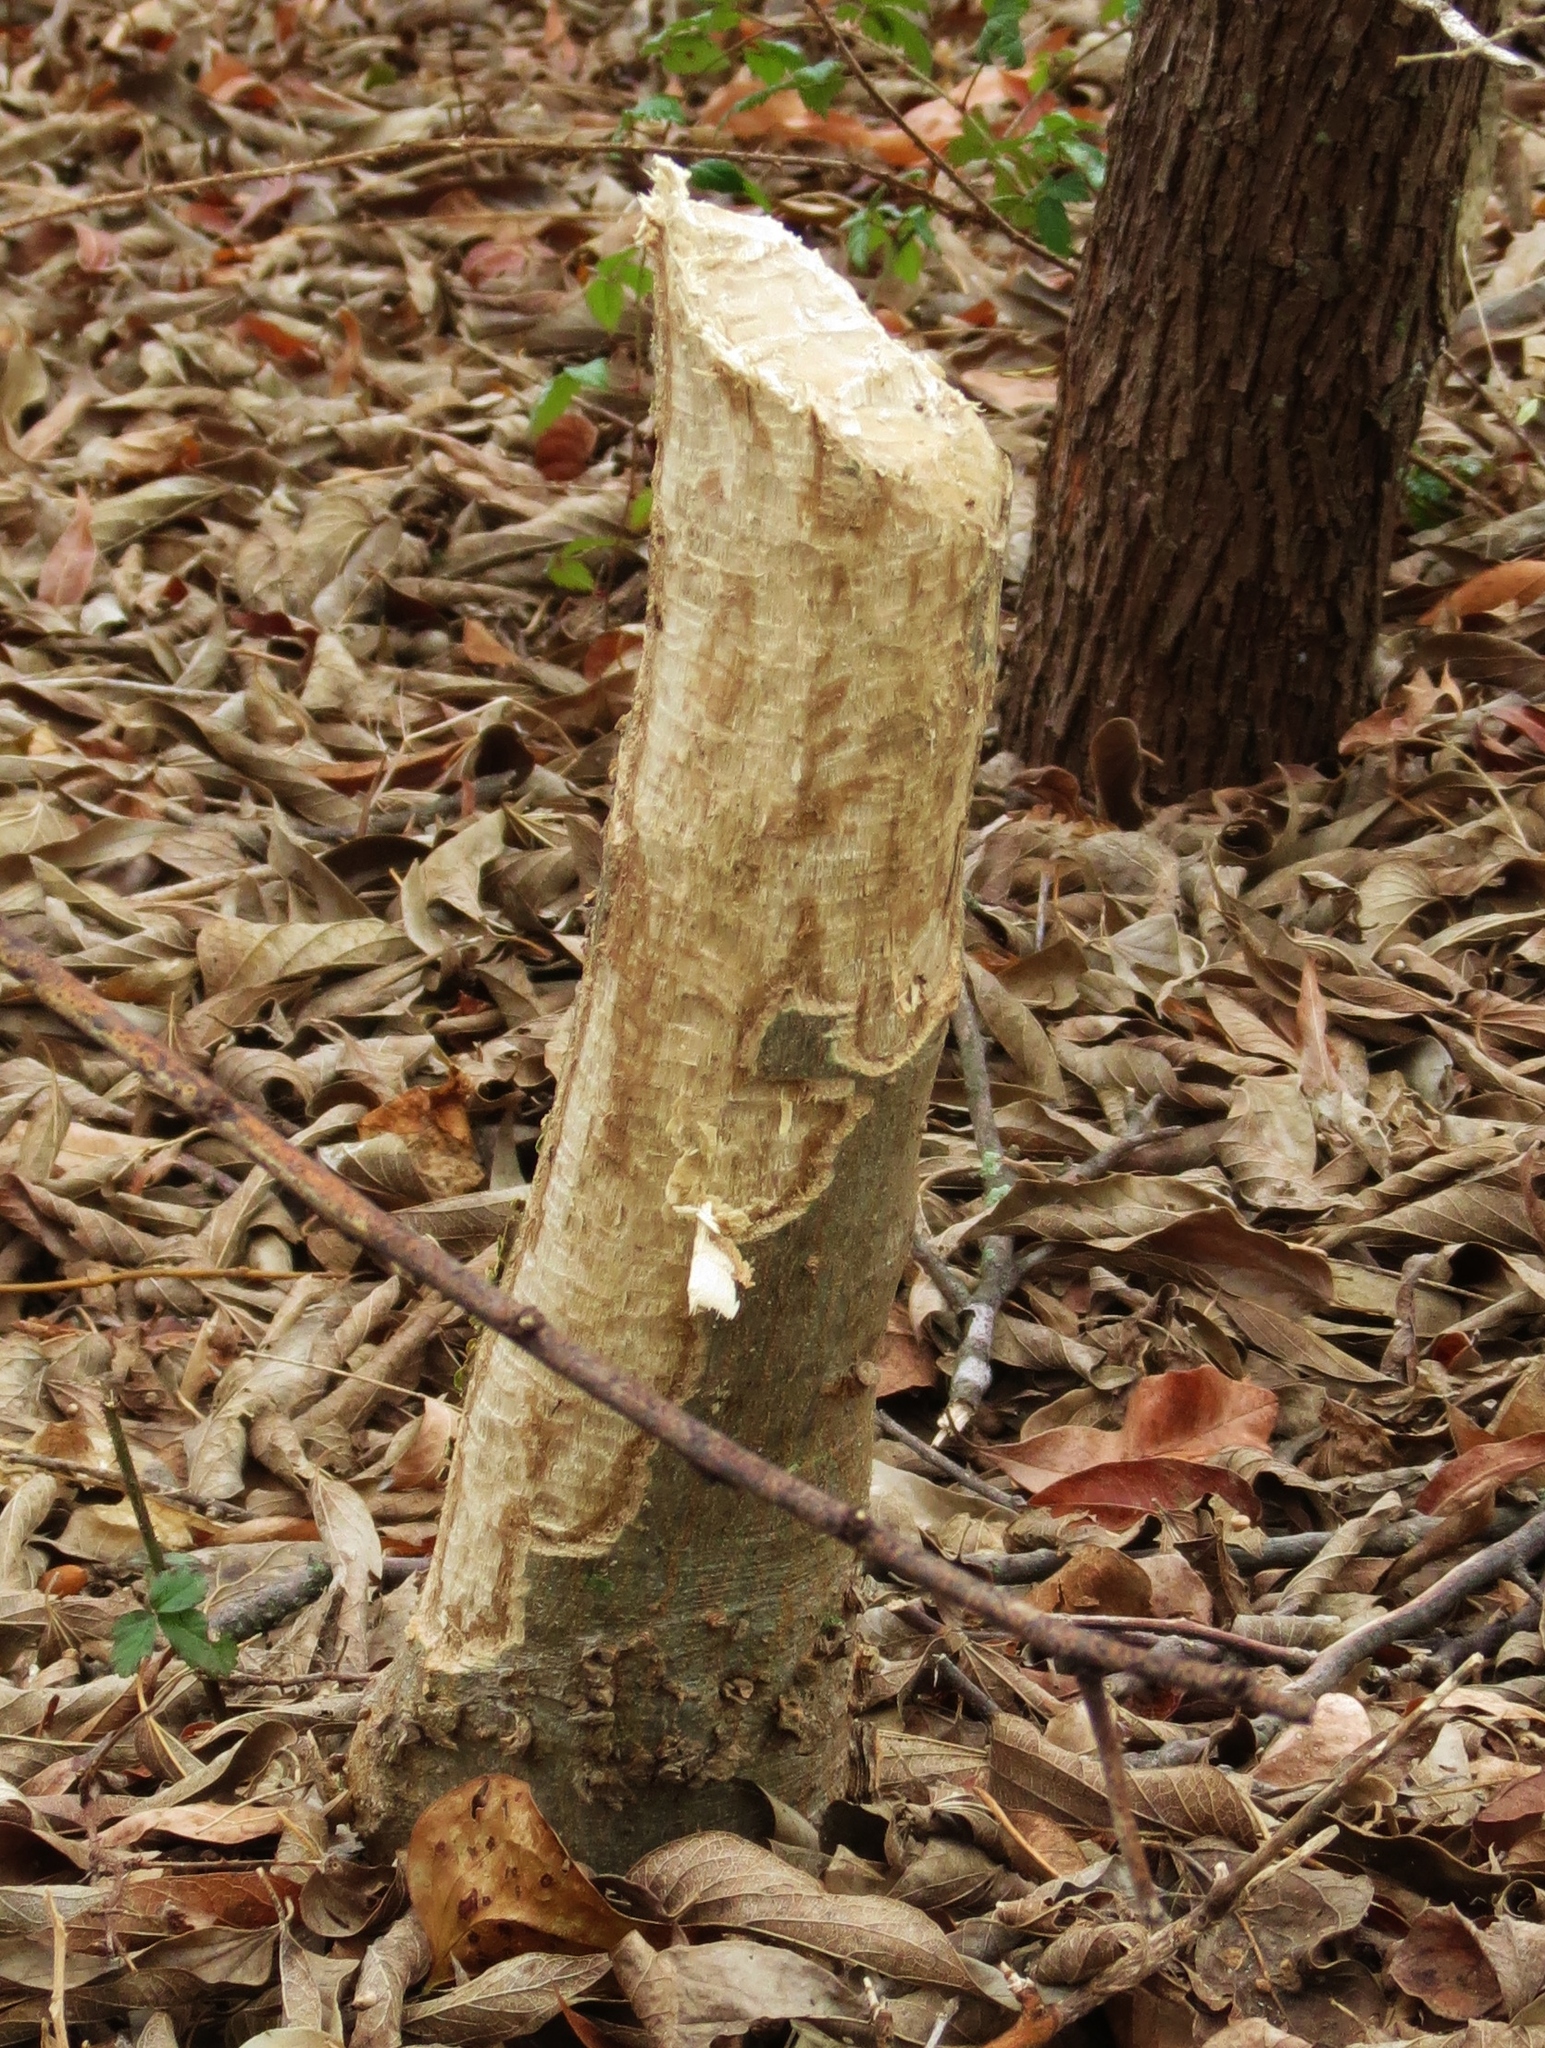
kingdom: Animalia
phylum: Chordata
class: Mammalia
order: Rodentia
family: Castoridae
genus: Castor
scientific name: Castor canadensis
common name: American beaver
